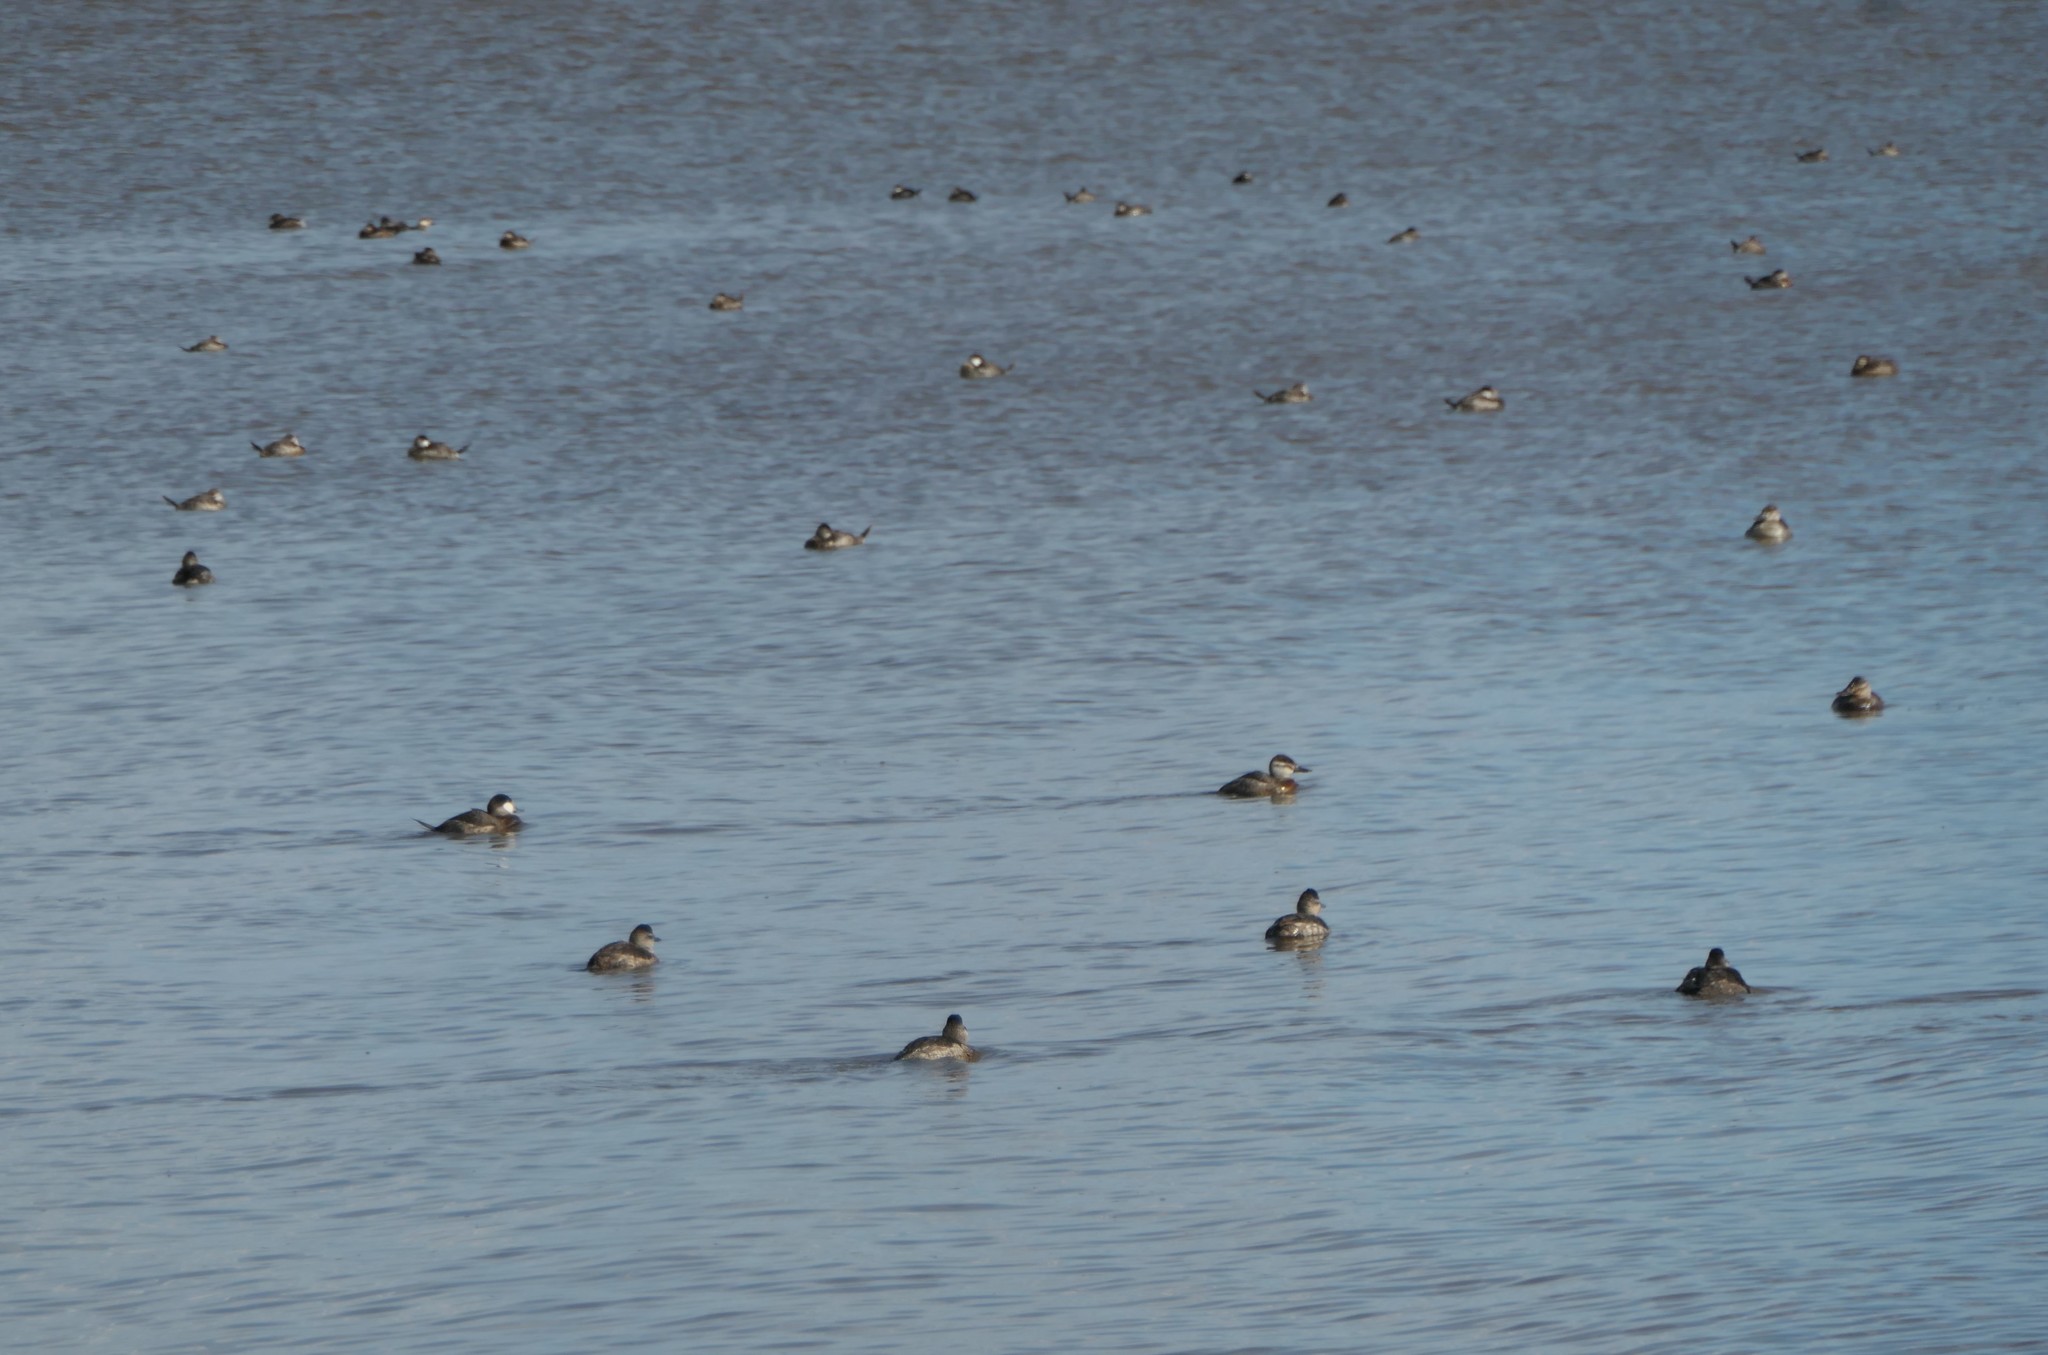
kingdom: Animalia
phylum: Chordata
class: Aves
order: Anseriformes
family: Anatidae
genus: Oxyura
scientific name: Oxyura jamaicensis
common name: Ruddy duck
